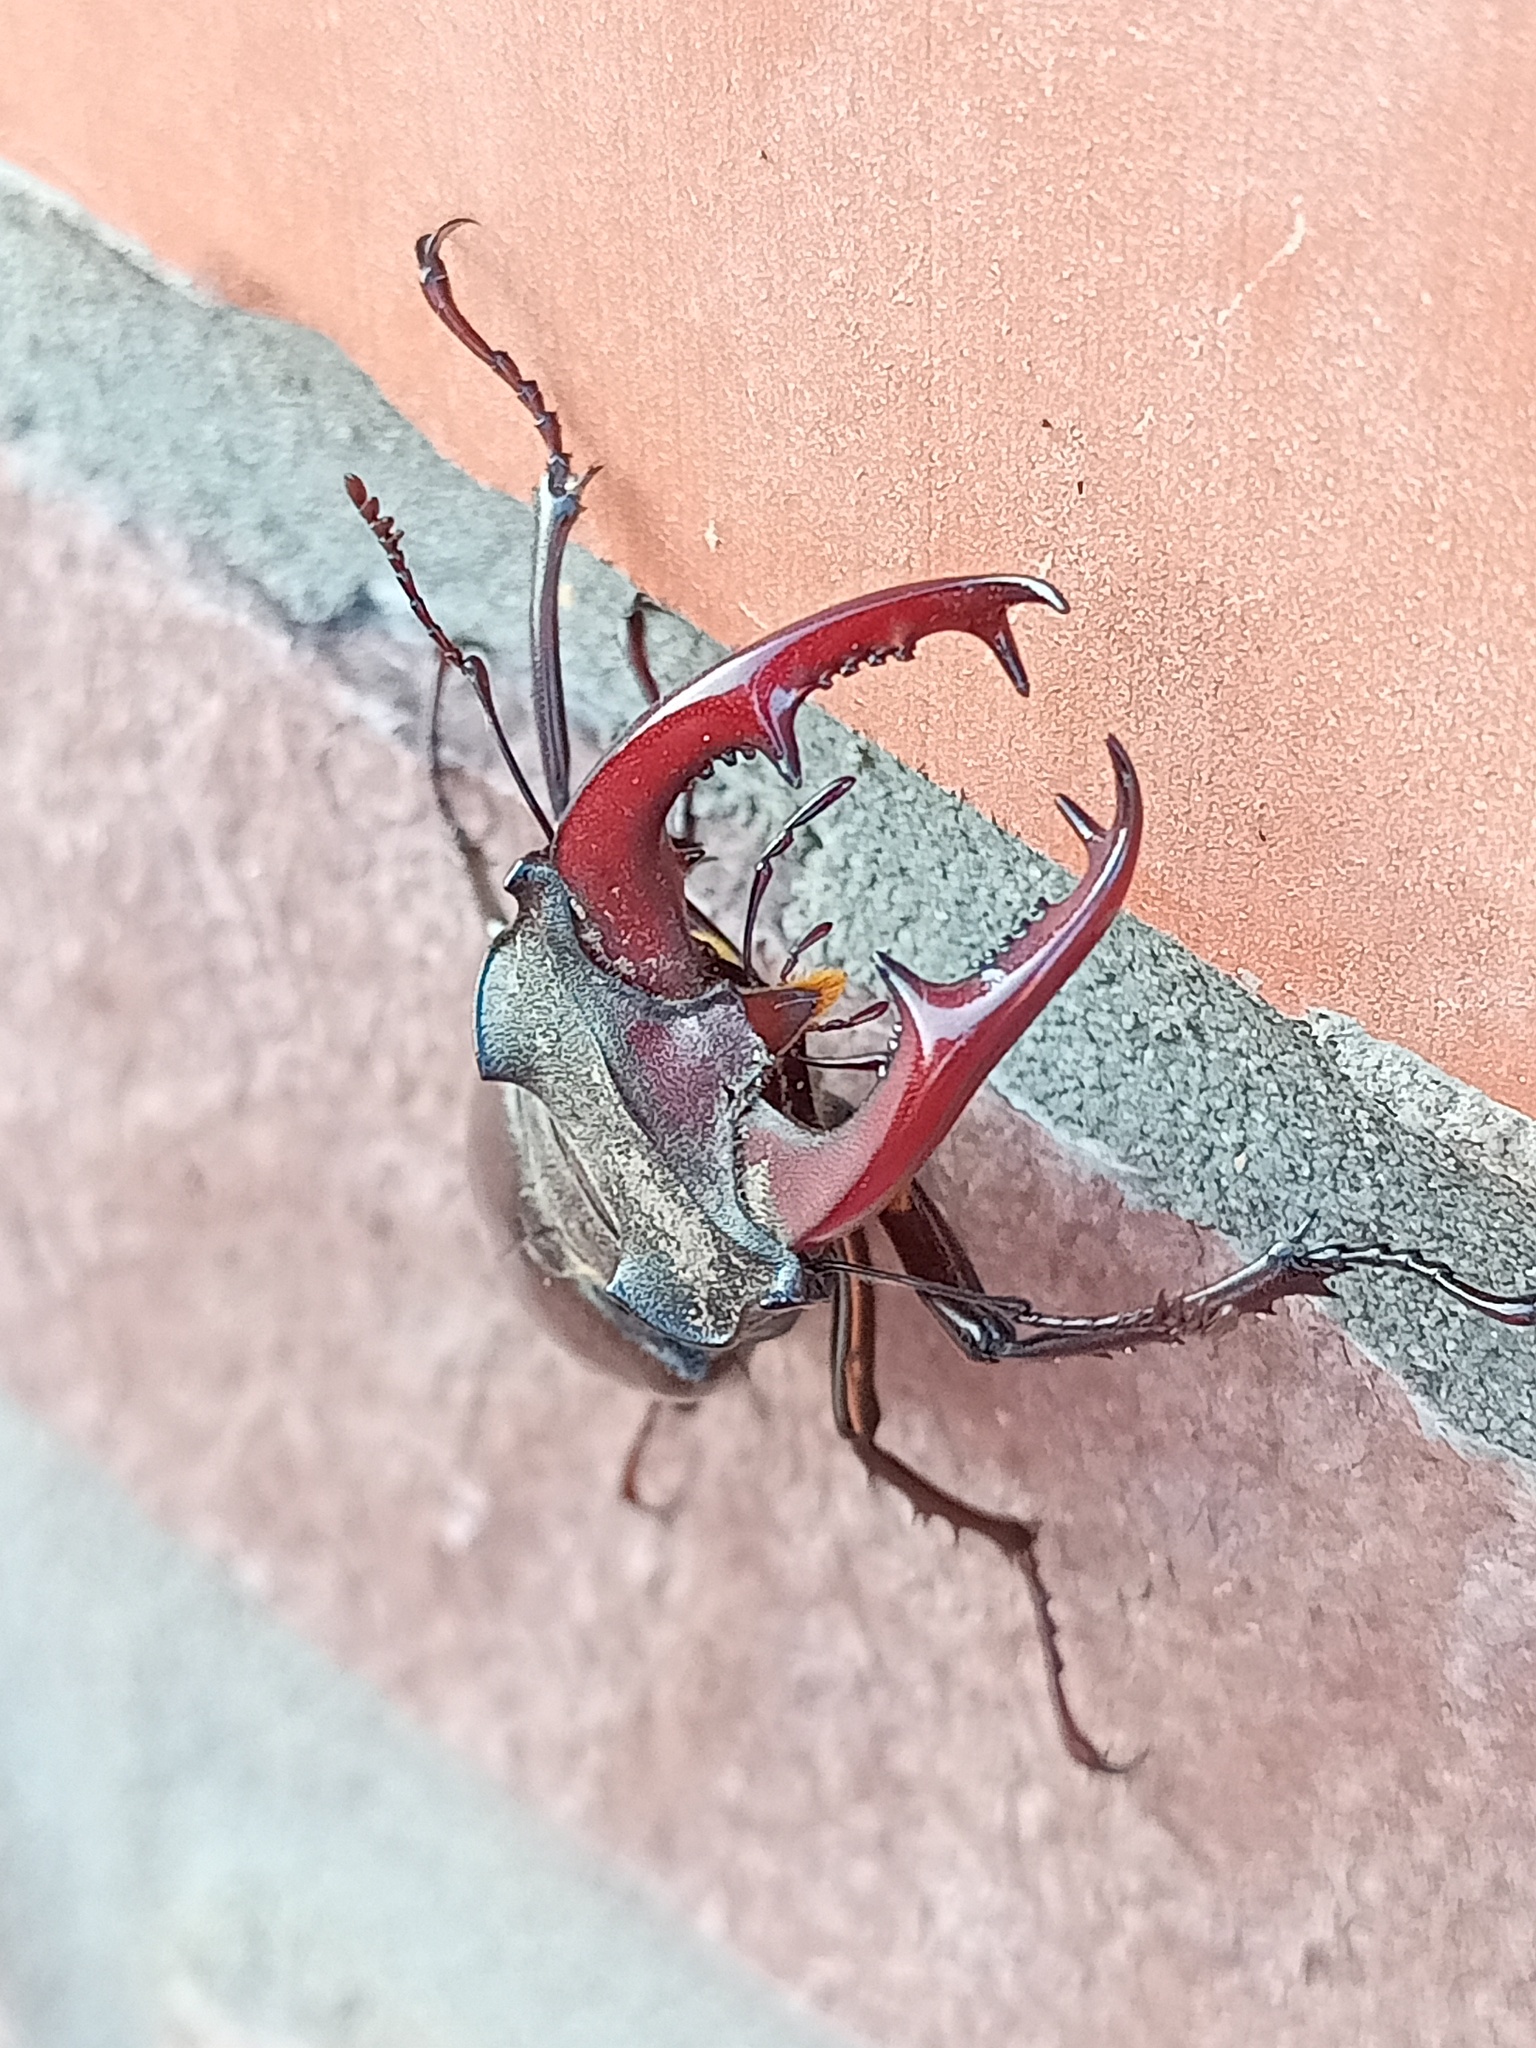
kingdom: Animalia
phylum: Arthropoda
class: Insecta
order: Coleoptera
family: Lucanidae
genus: Lucanus
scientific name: Lucanus cervus
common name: Stag beetle
